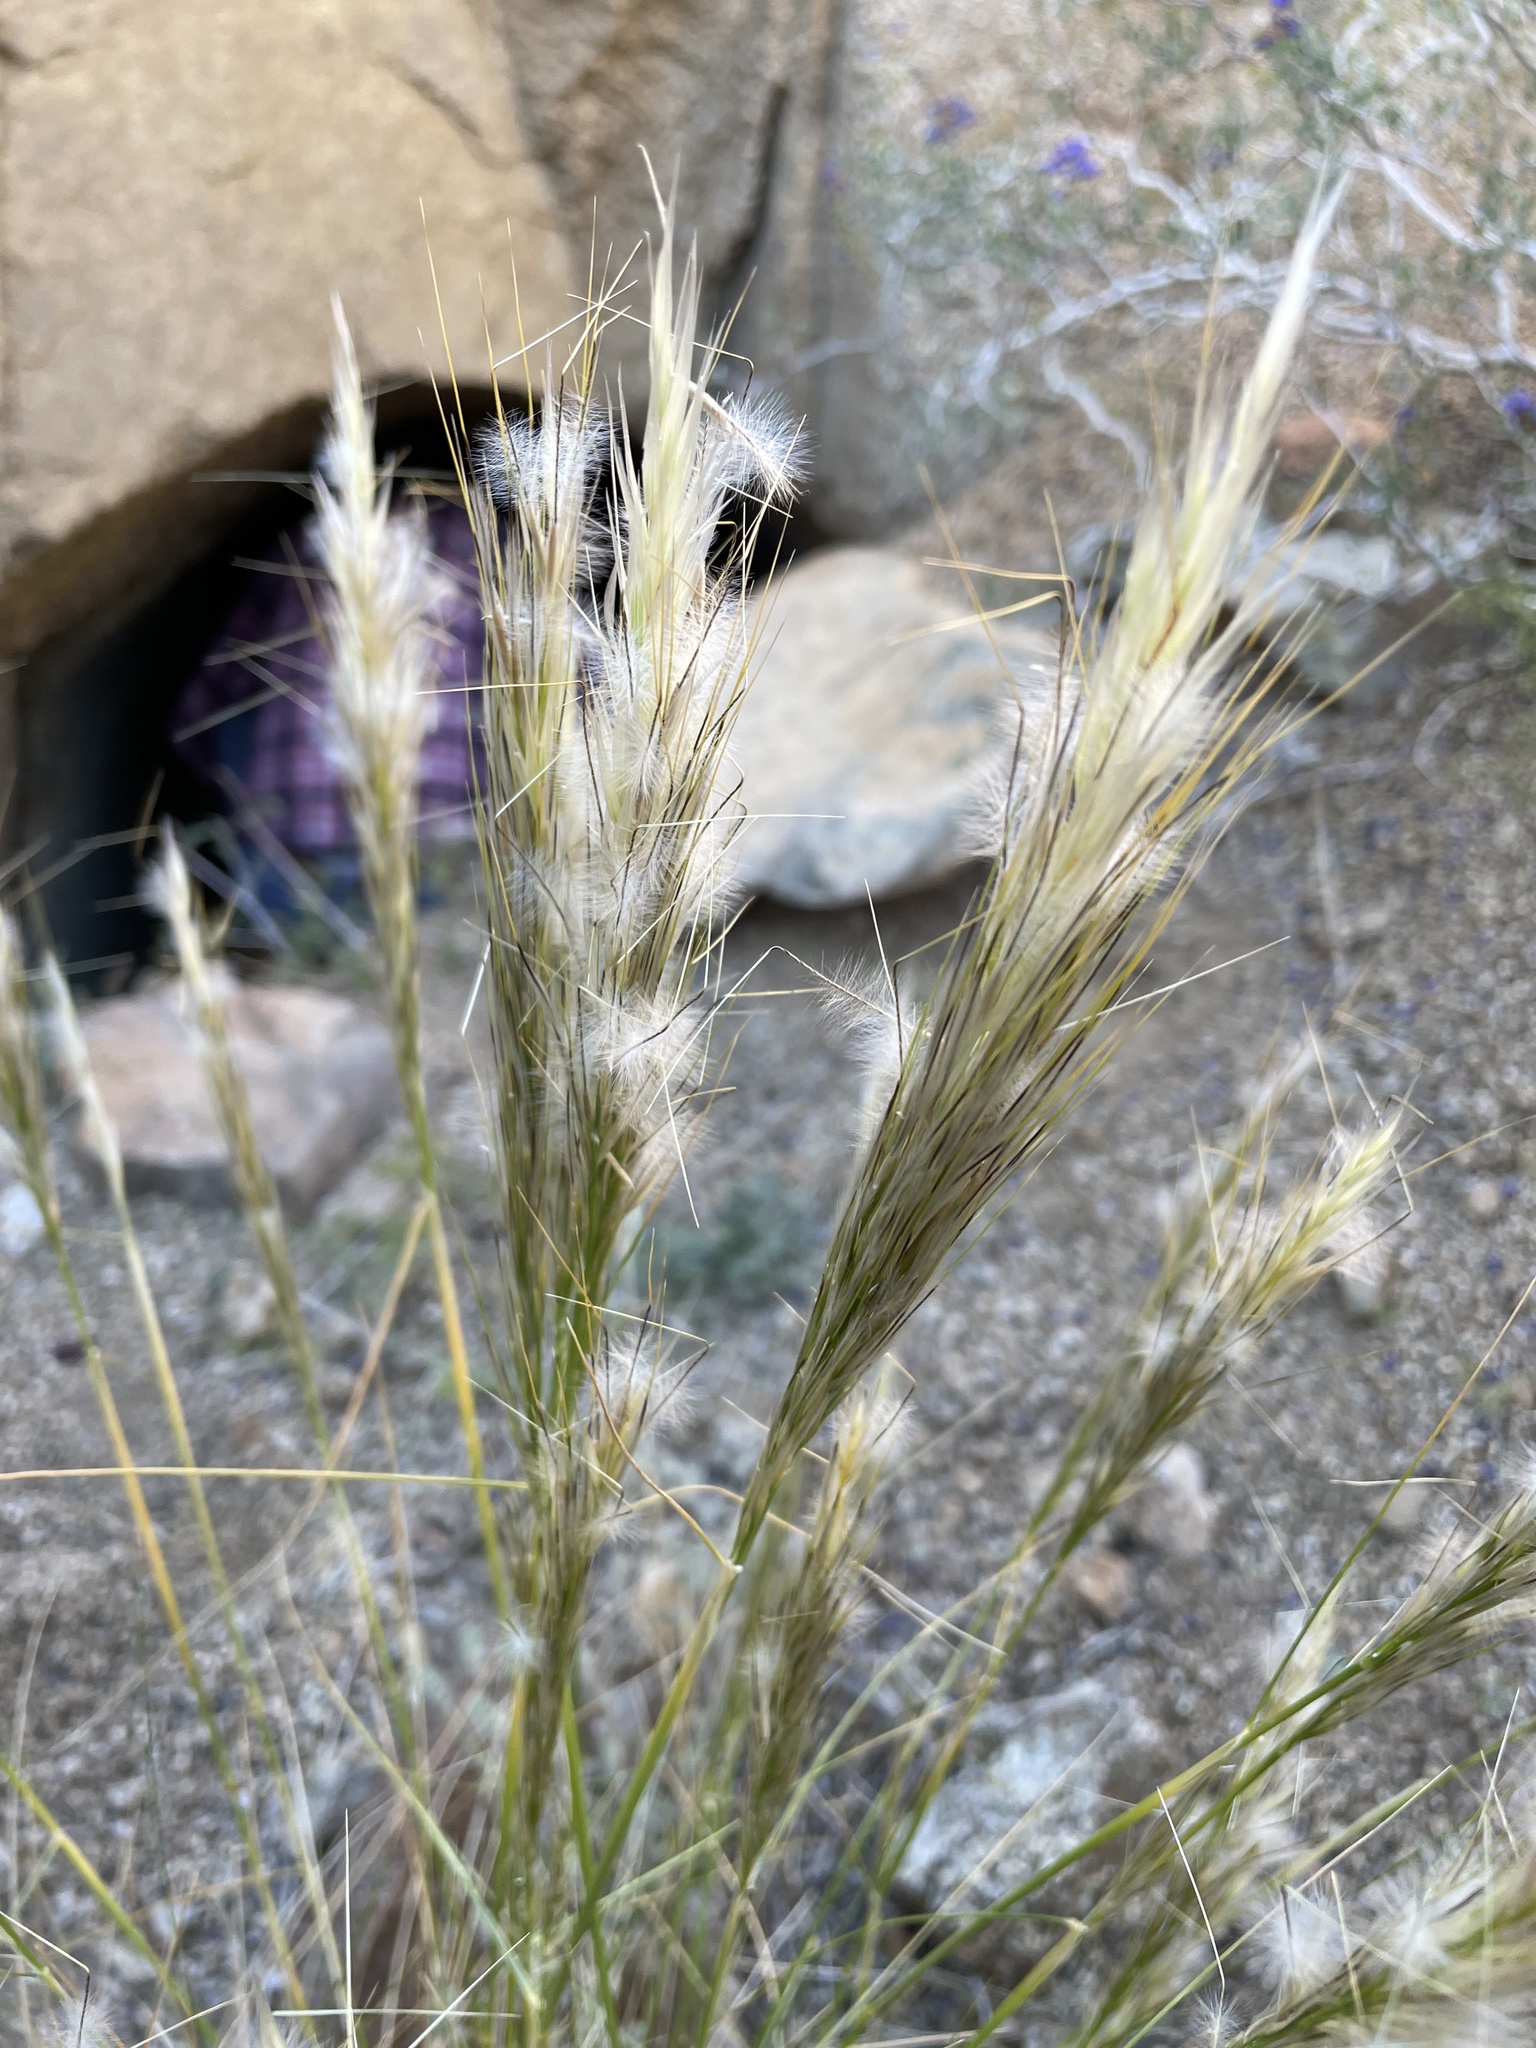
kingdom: Plantae
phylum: Tracheophyta
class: Liliopsida
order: Poales
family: Poaceae
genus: Pappostipa
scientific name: Pappostipa speciosa
